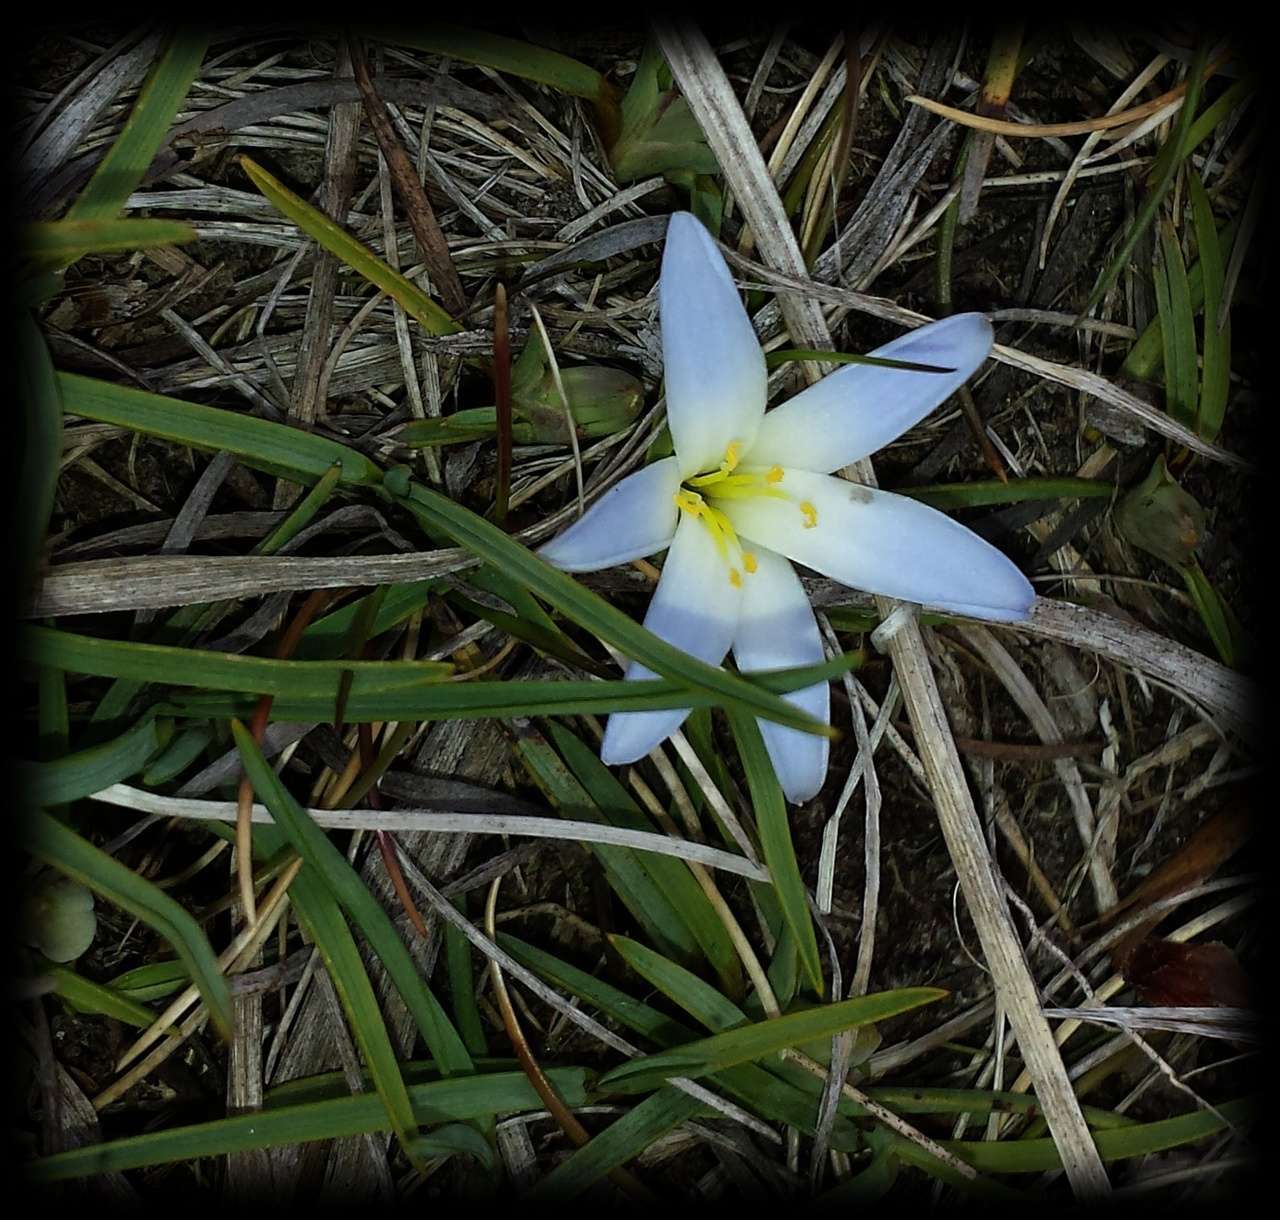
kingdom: Plantae
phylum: Tracheophyta
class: Liliopsida
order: Asparagales
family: Asphodelaceae
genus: Herpolirion
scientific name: Herpolirion novae-zelandiae
